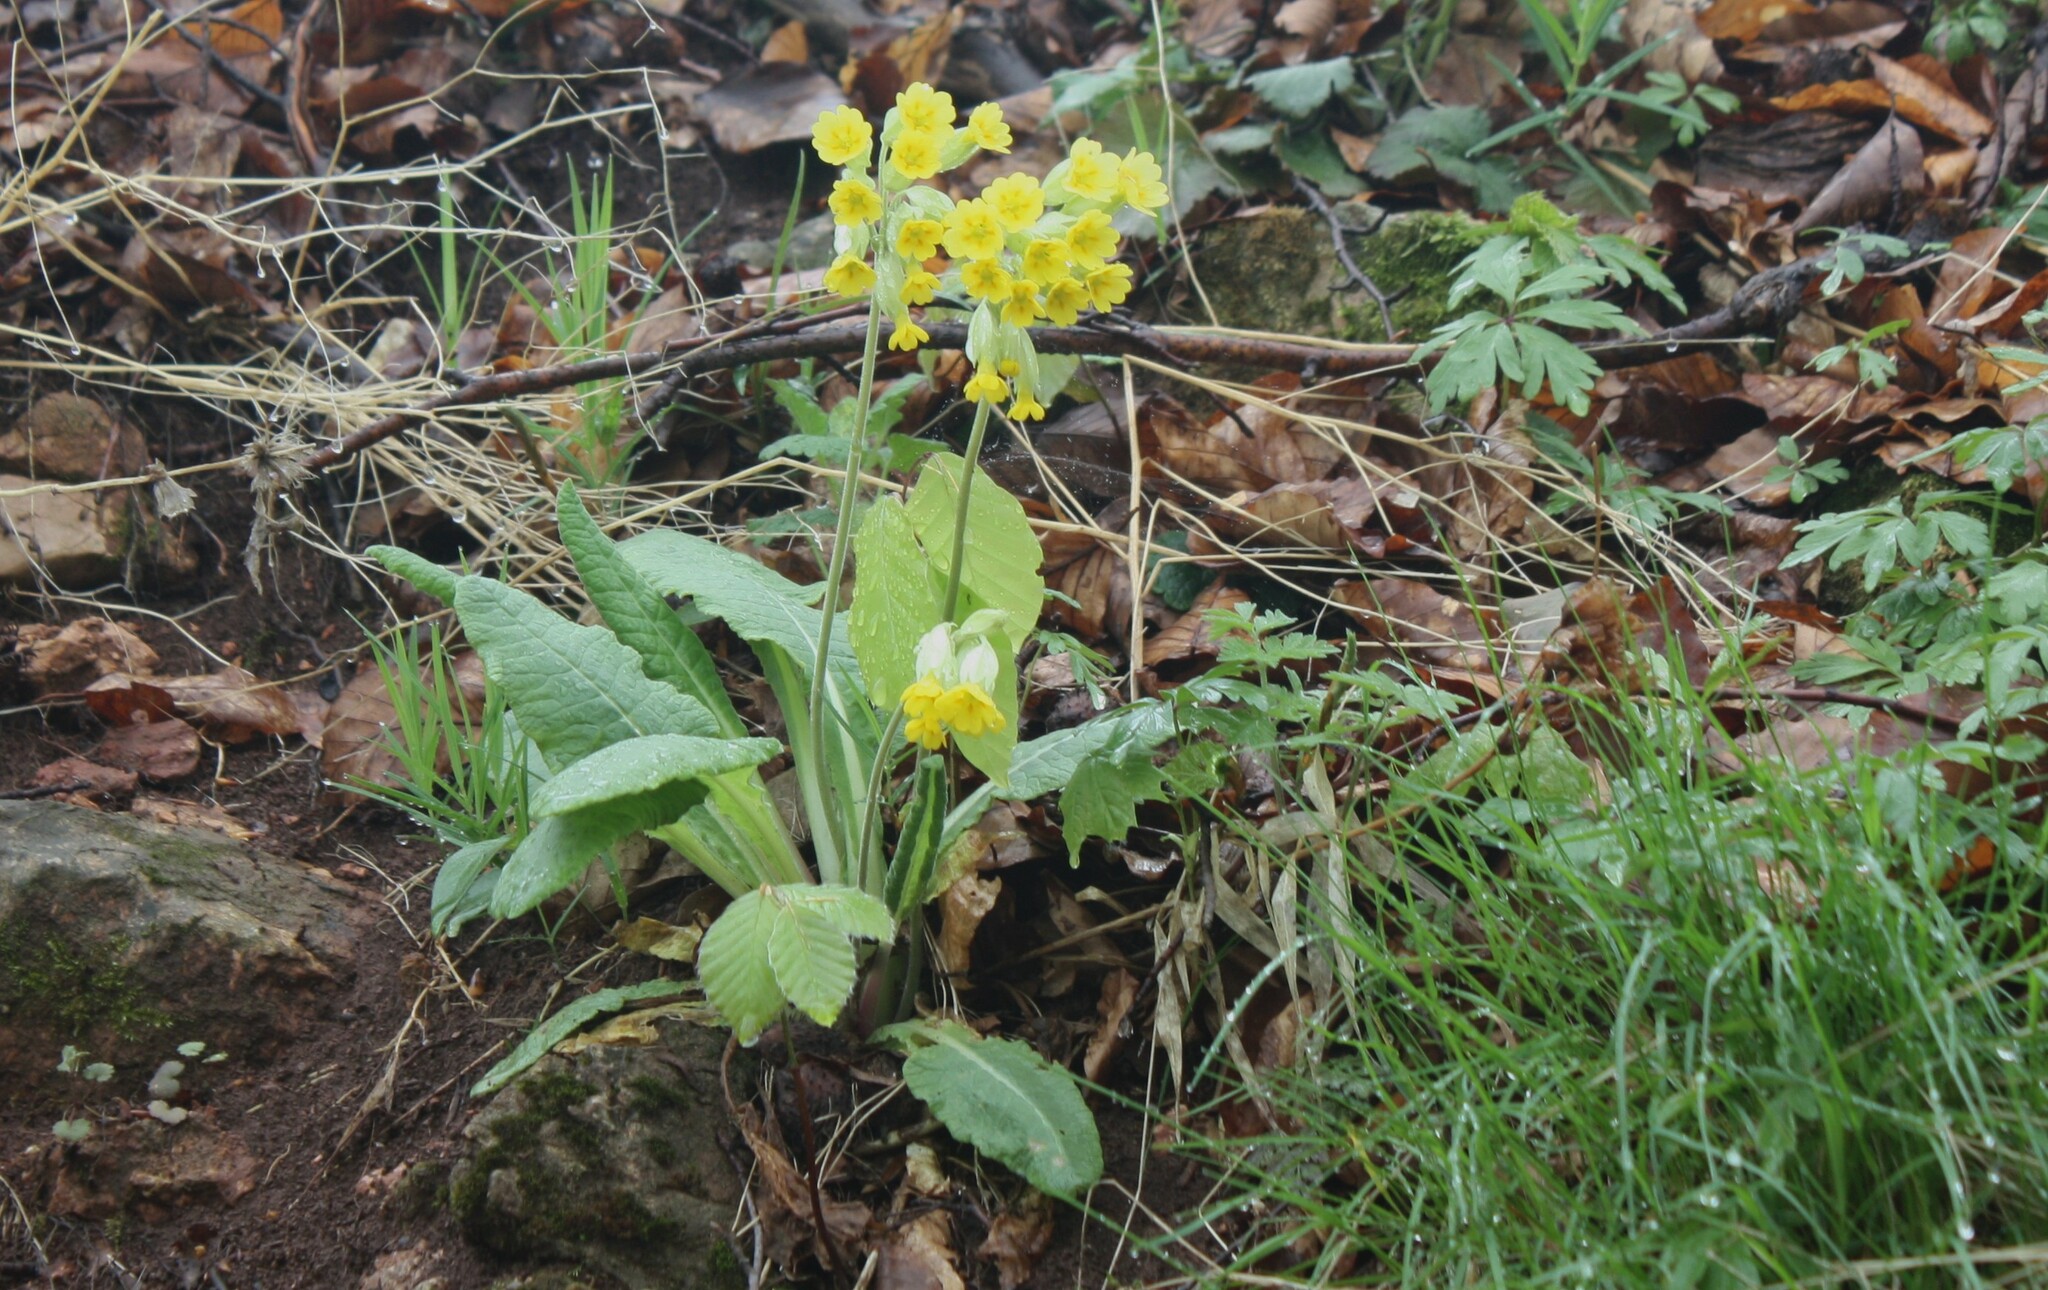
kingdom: Plantae
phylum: Tracheophyta
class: Magnoliopsida
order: Ericales
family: Primulaceae
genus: Primula
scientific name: Primula veris
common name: Cowslip
